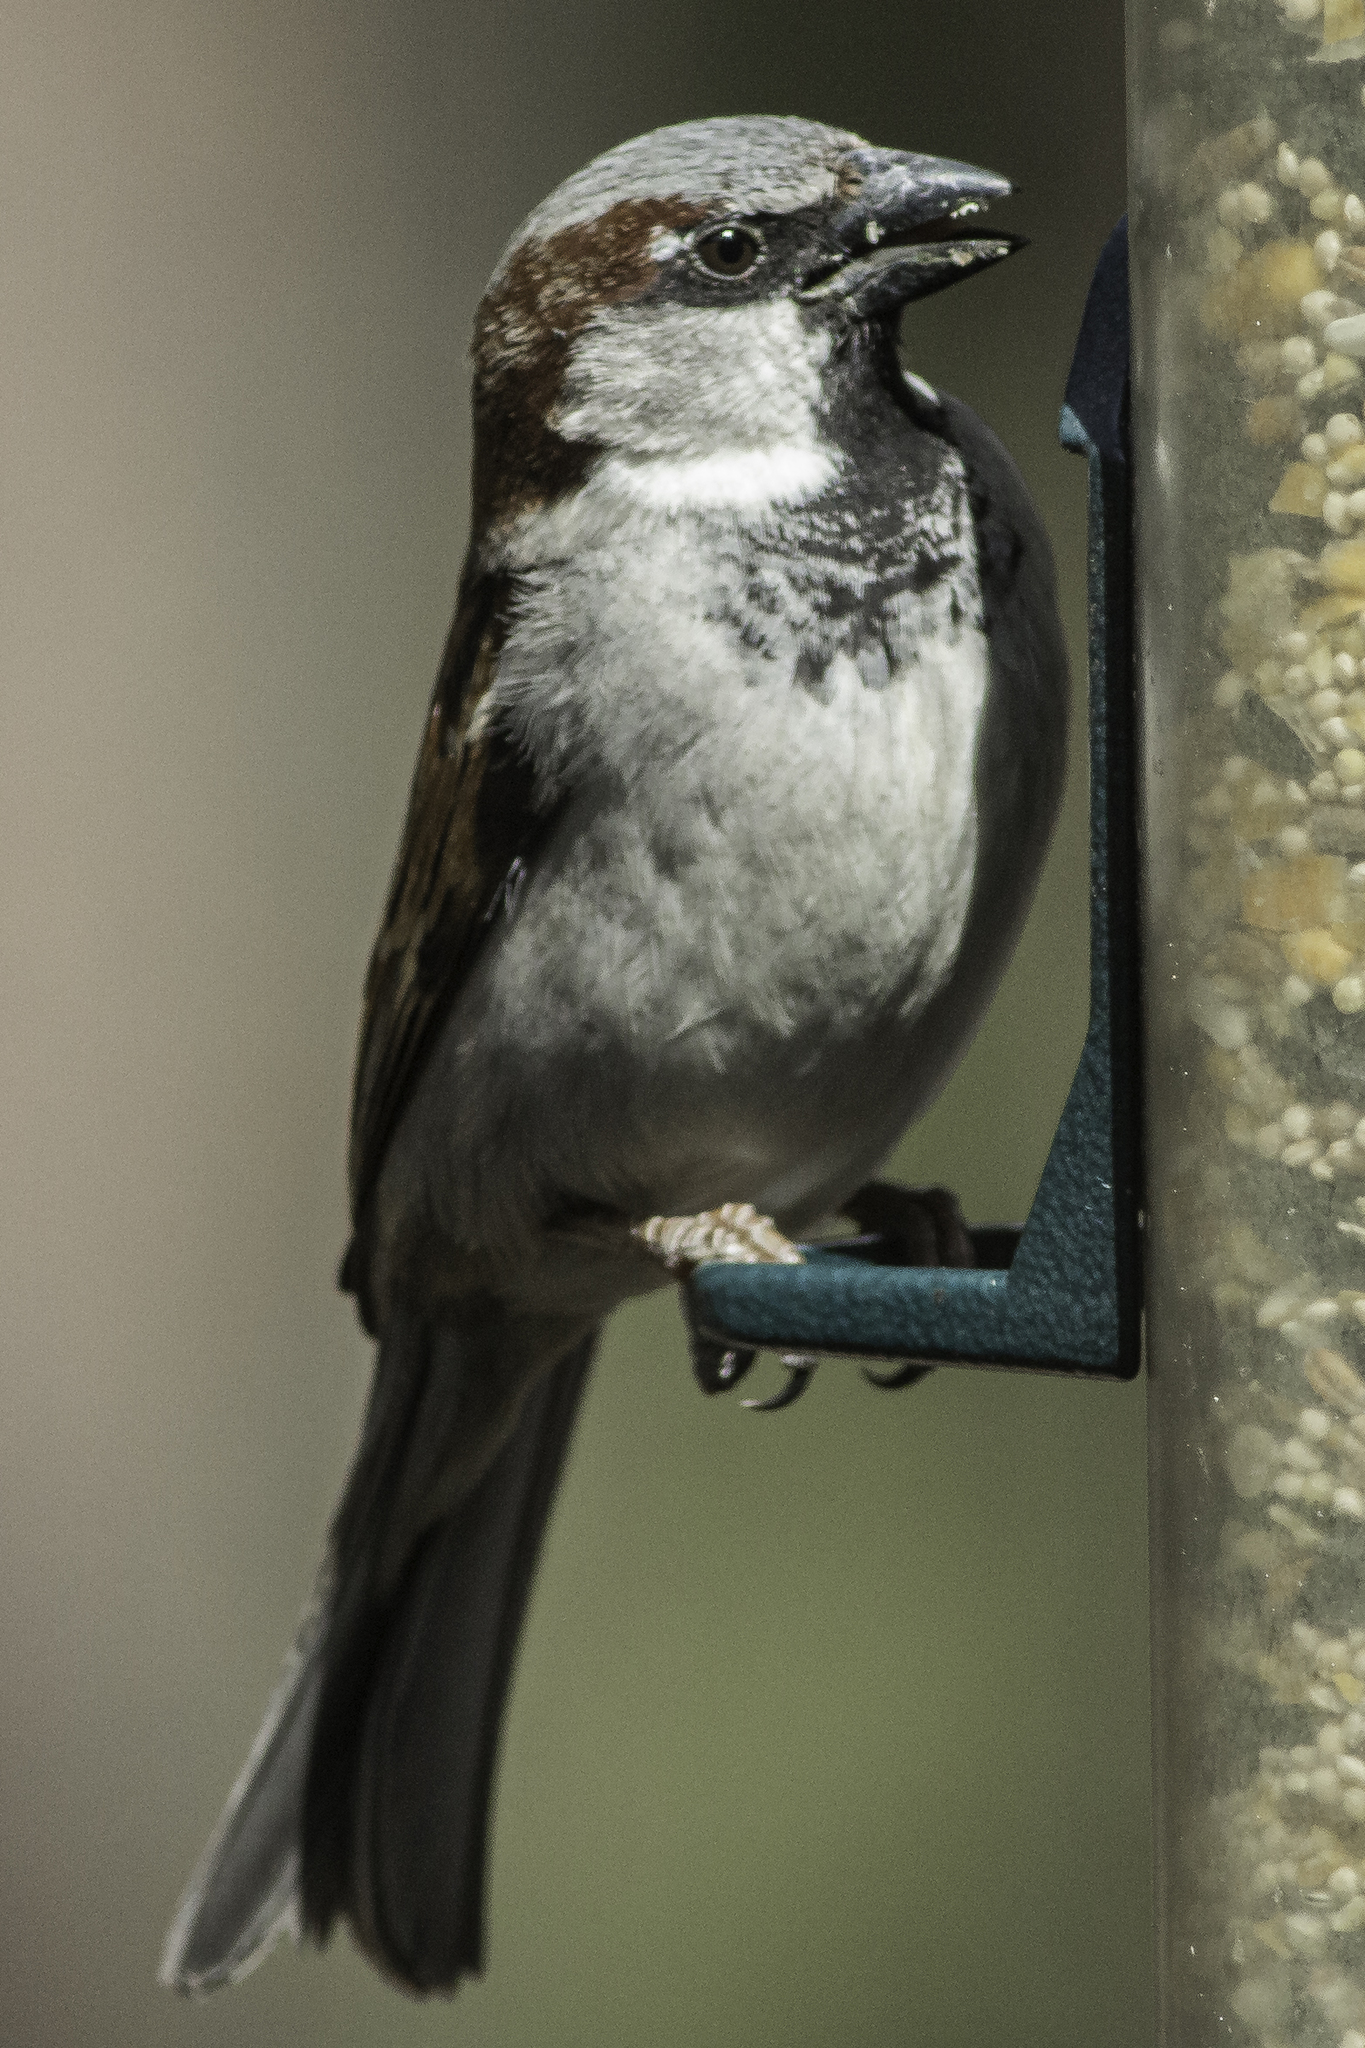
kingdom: Animalia
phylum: Chordata
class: Aves
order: Passeriformes
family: Passeridae
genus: Passer
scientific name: Passer domesticus
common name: House sparrow
